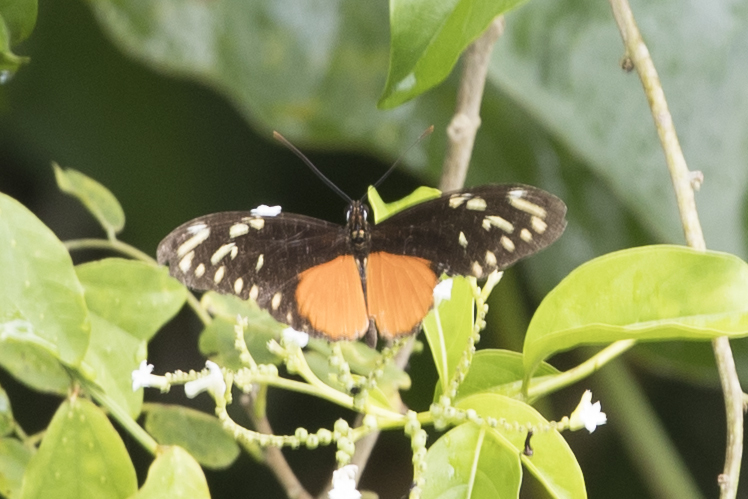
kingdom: Animalia
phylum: Arthropoda
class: Insecta
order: Lepidoptera
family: Nymphalidae
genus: Heliconius
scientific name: Heliconius hecalesia
